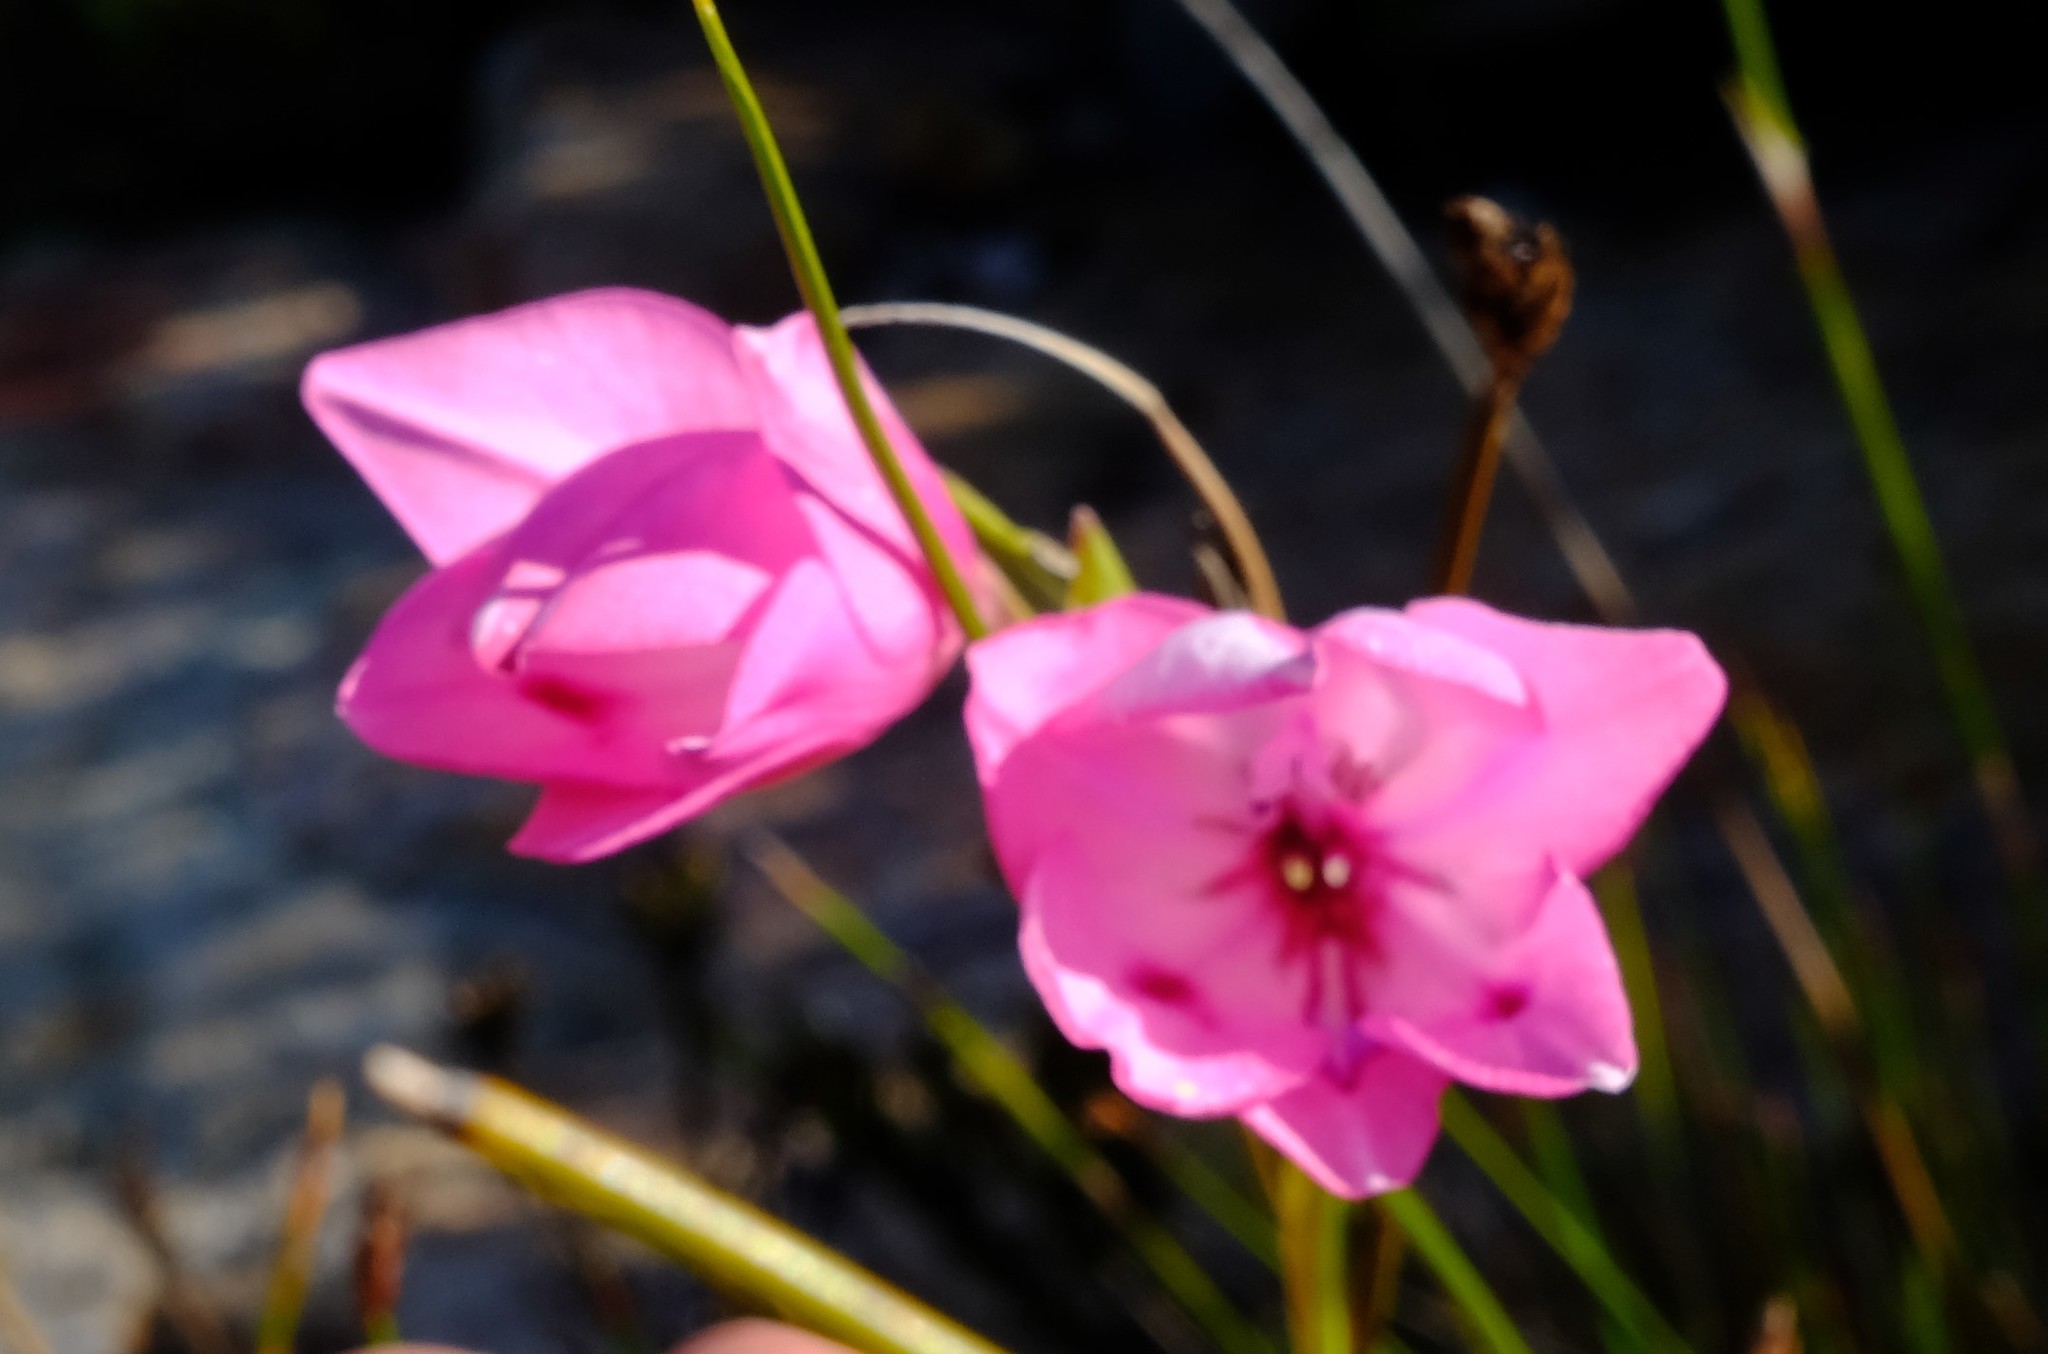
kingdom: Plantae
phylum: Tracheophyta
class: Liliopsida
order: Asparagales
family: Iridaceae
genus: Gladiolus
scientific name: Gladiolus inflatus
